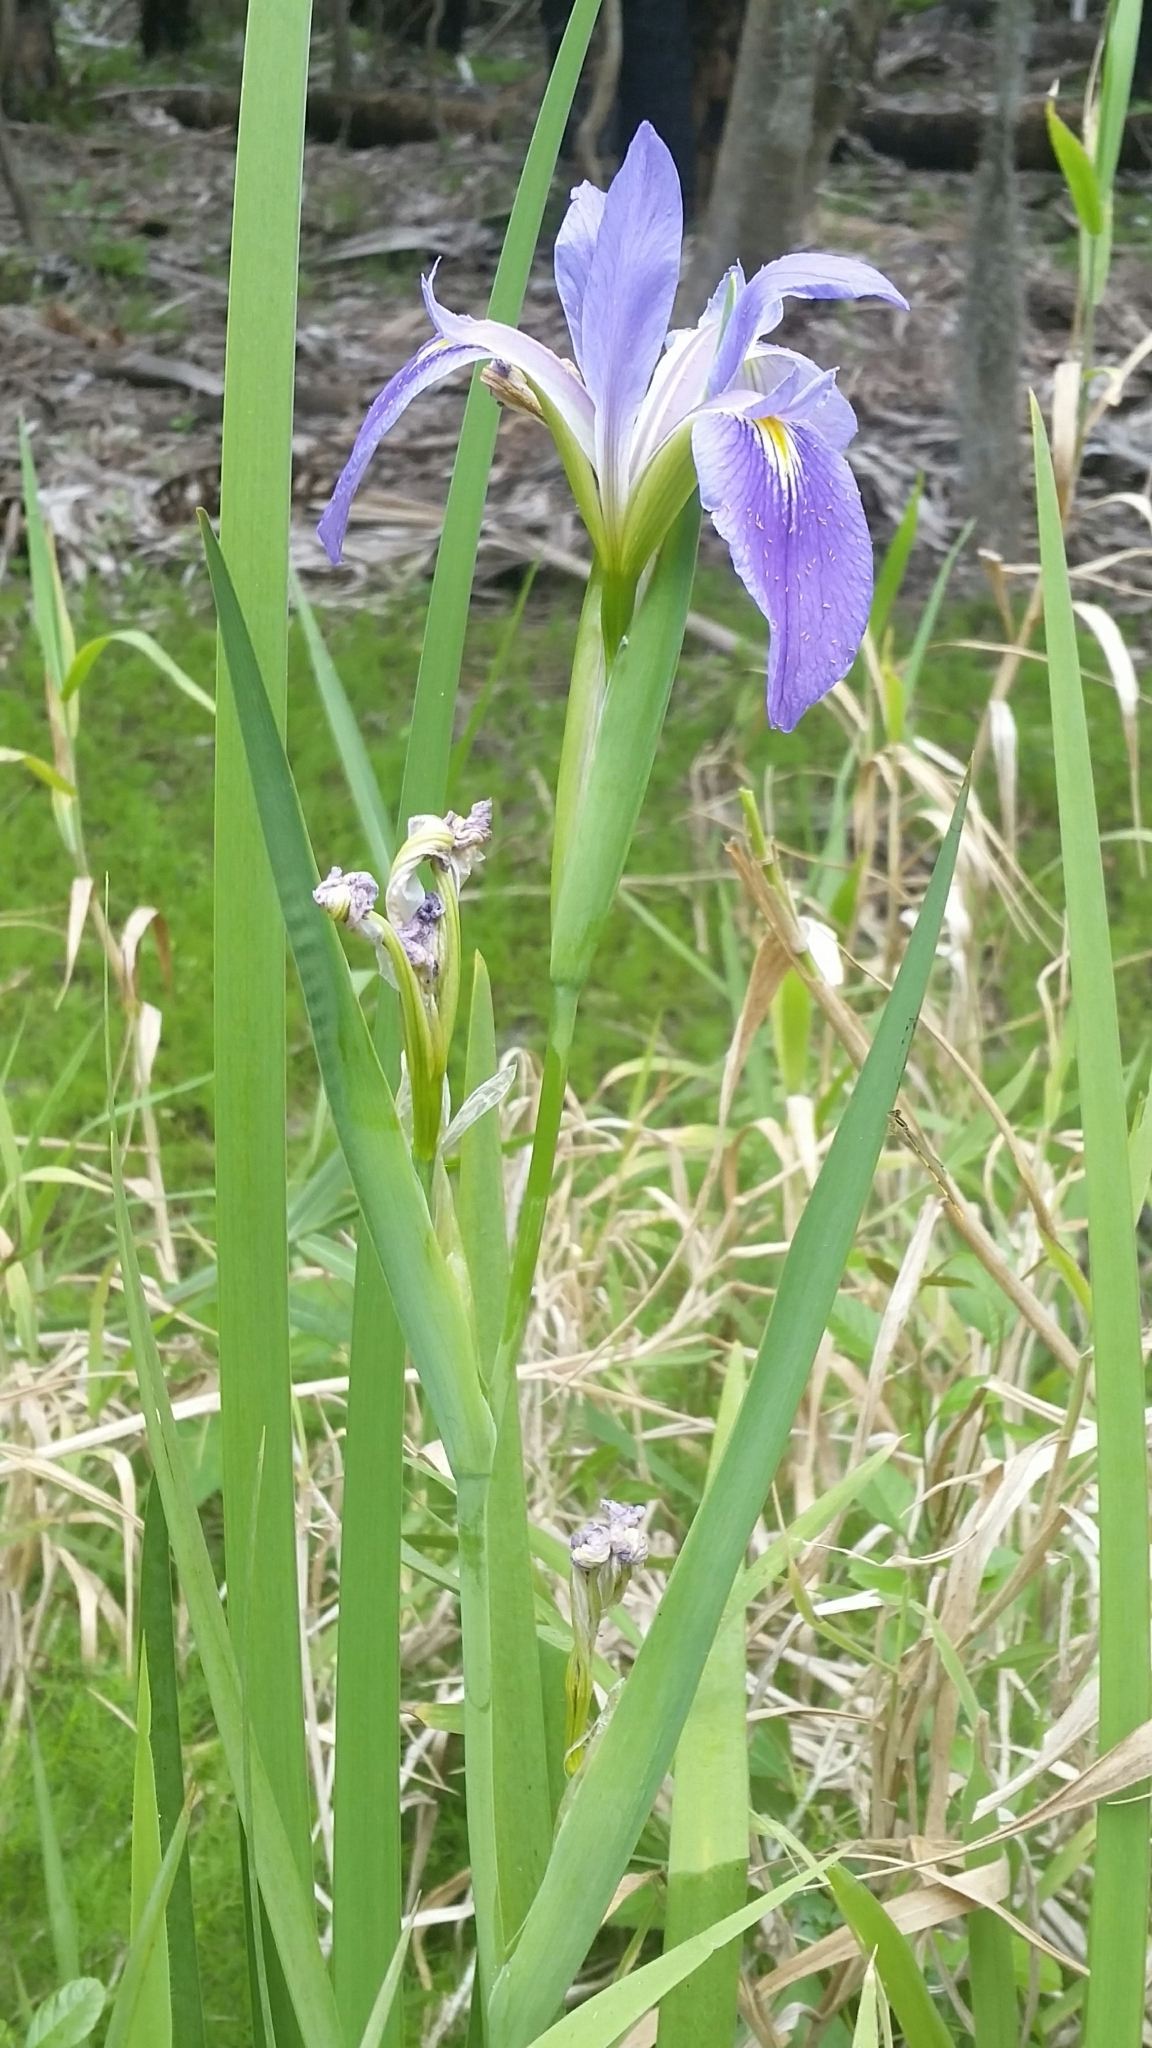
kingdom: Plantae
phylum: Tracheophyta
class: Liliopsida
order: Asparagales
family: Iridaceae
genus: Iris
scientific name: Iris savannarum
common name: Prairie iris
